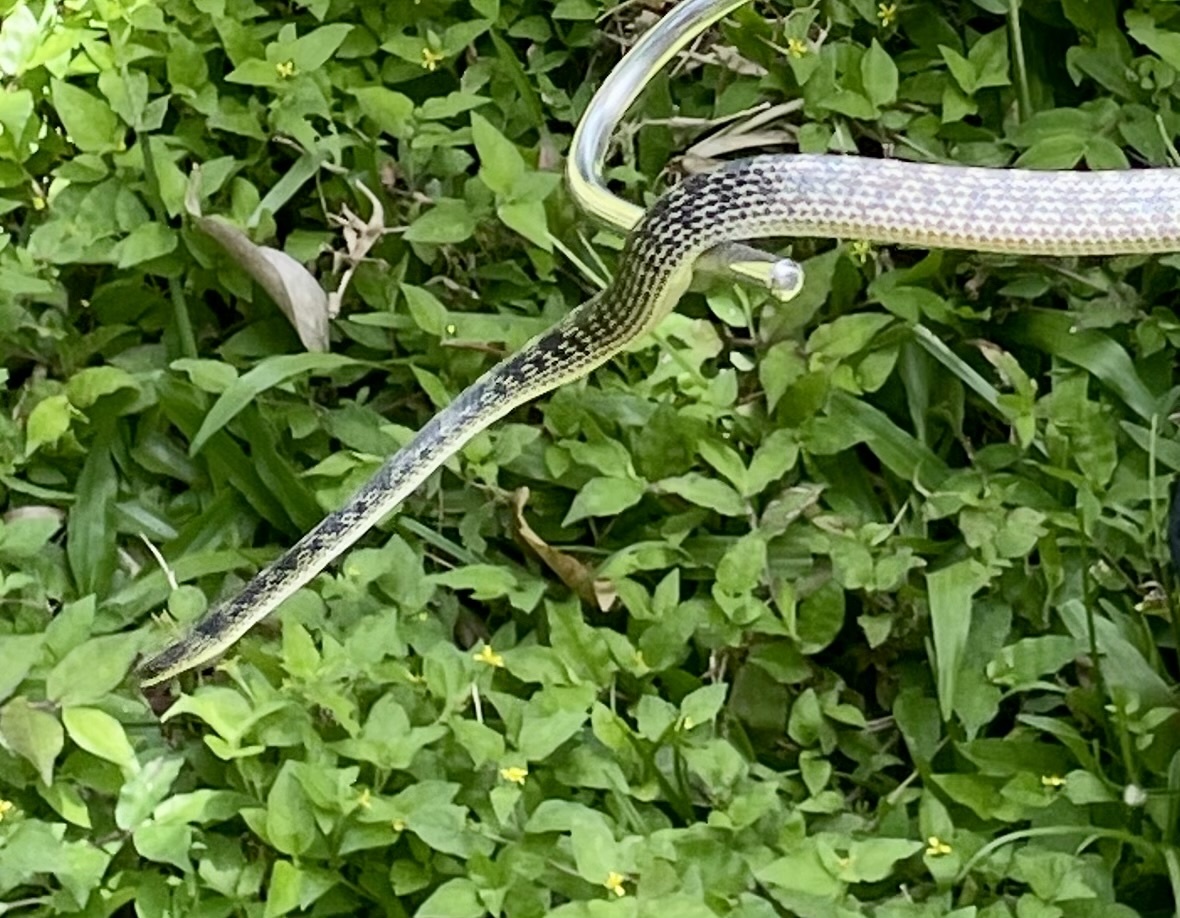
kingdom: Animalia
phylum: Chordata
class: Squamata
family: Colubridae
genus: Lycodon
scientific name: Lycodon travancoricus
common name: Travancore wolf snake
